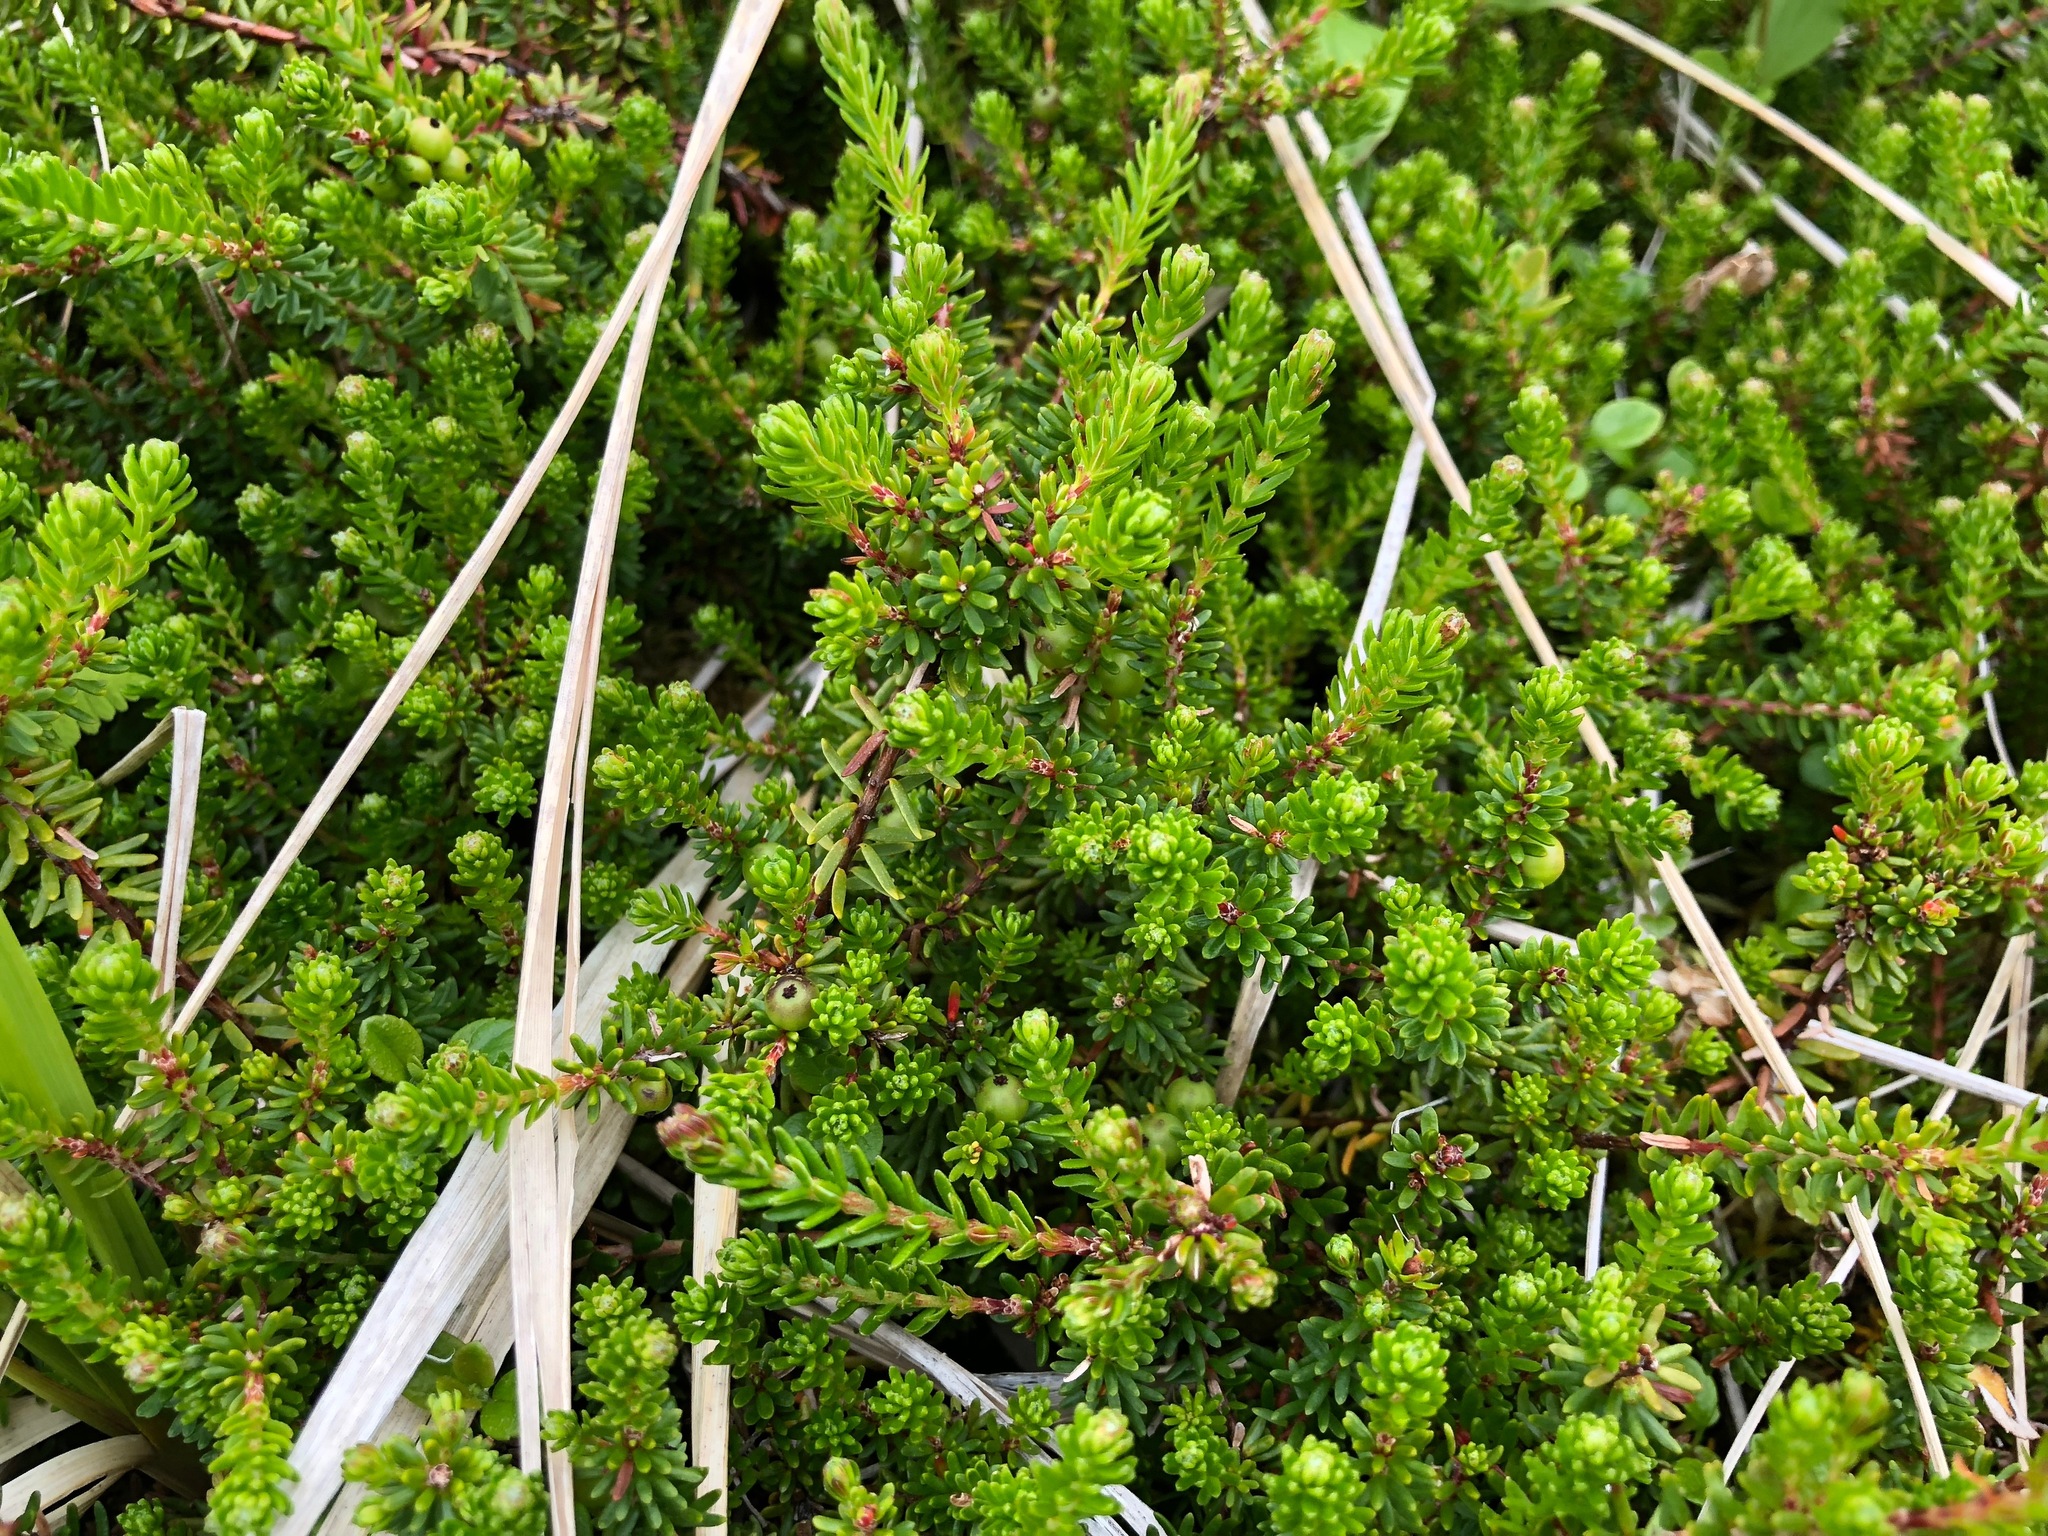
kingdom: Plantae
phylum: Tracheophyta
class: Magnoliopsida
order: Ericales
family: Ericaceae
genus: Empetrum
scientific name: Empetrum nigrum
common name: Black crowberry
